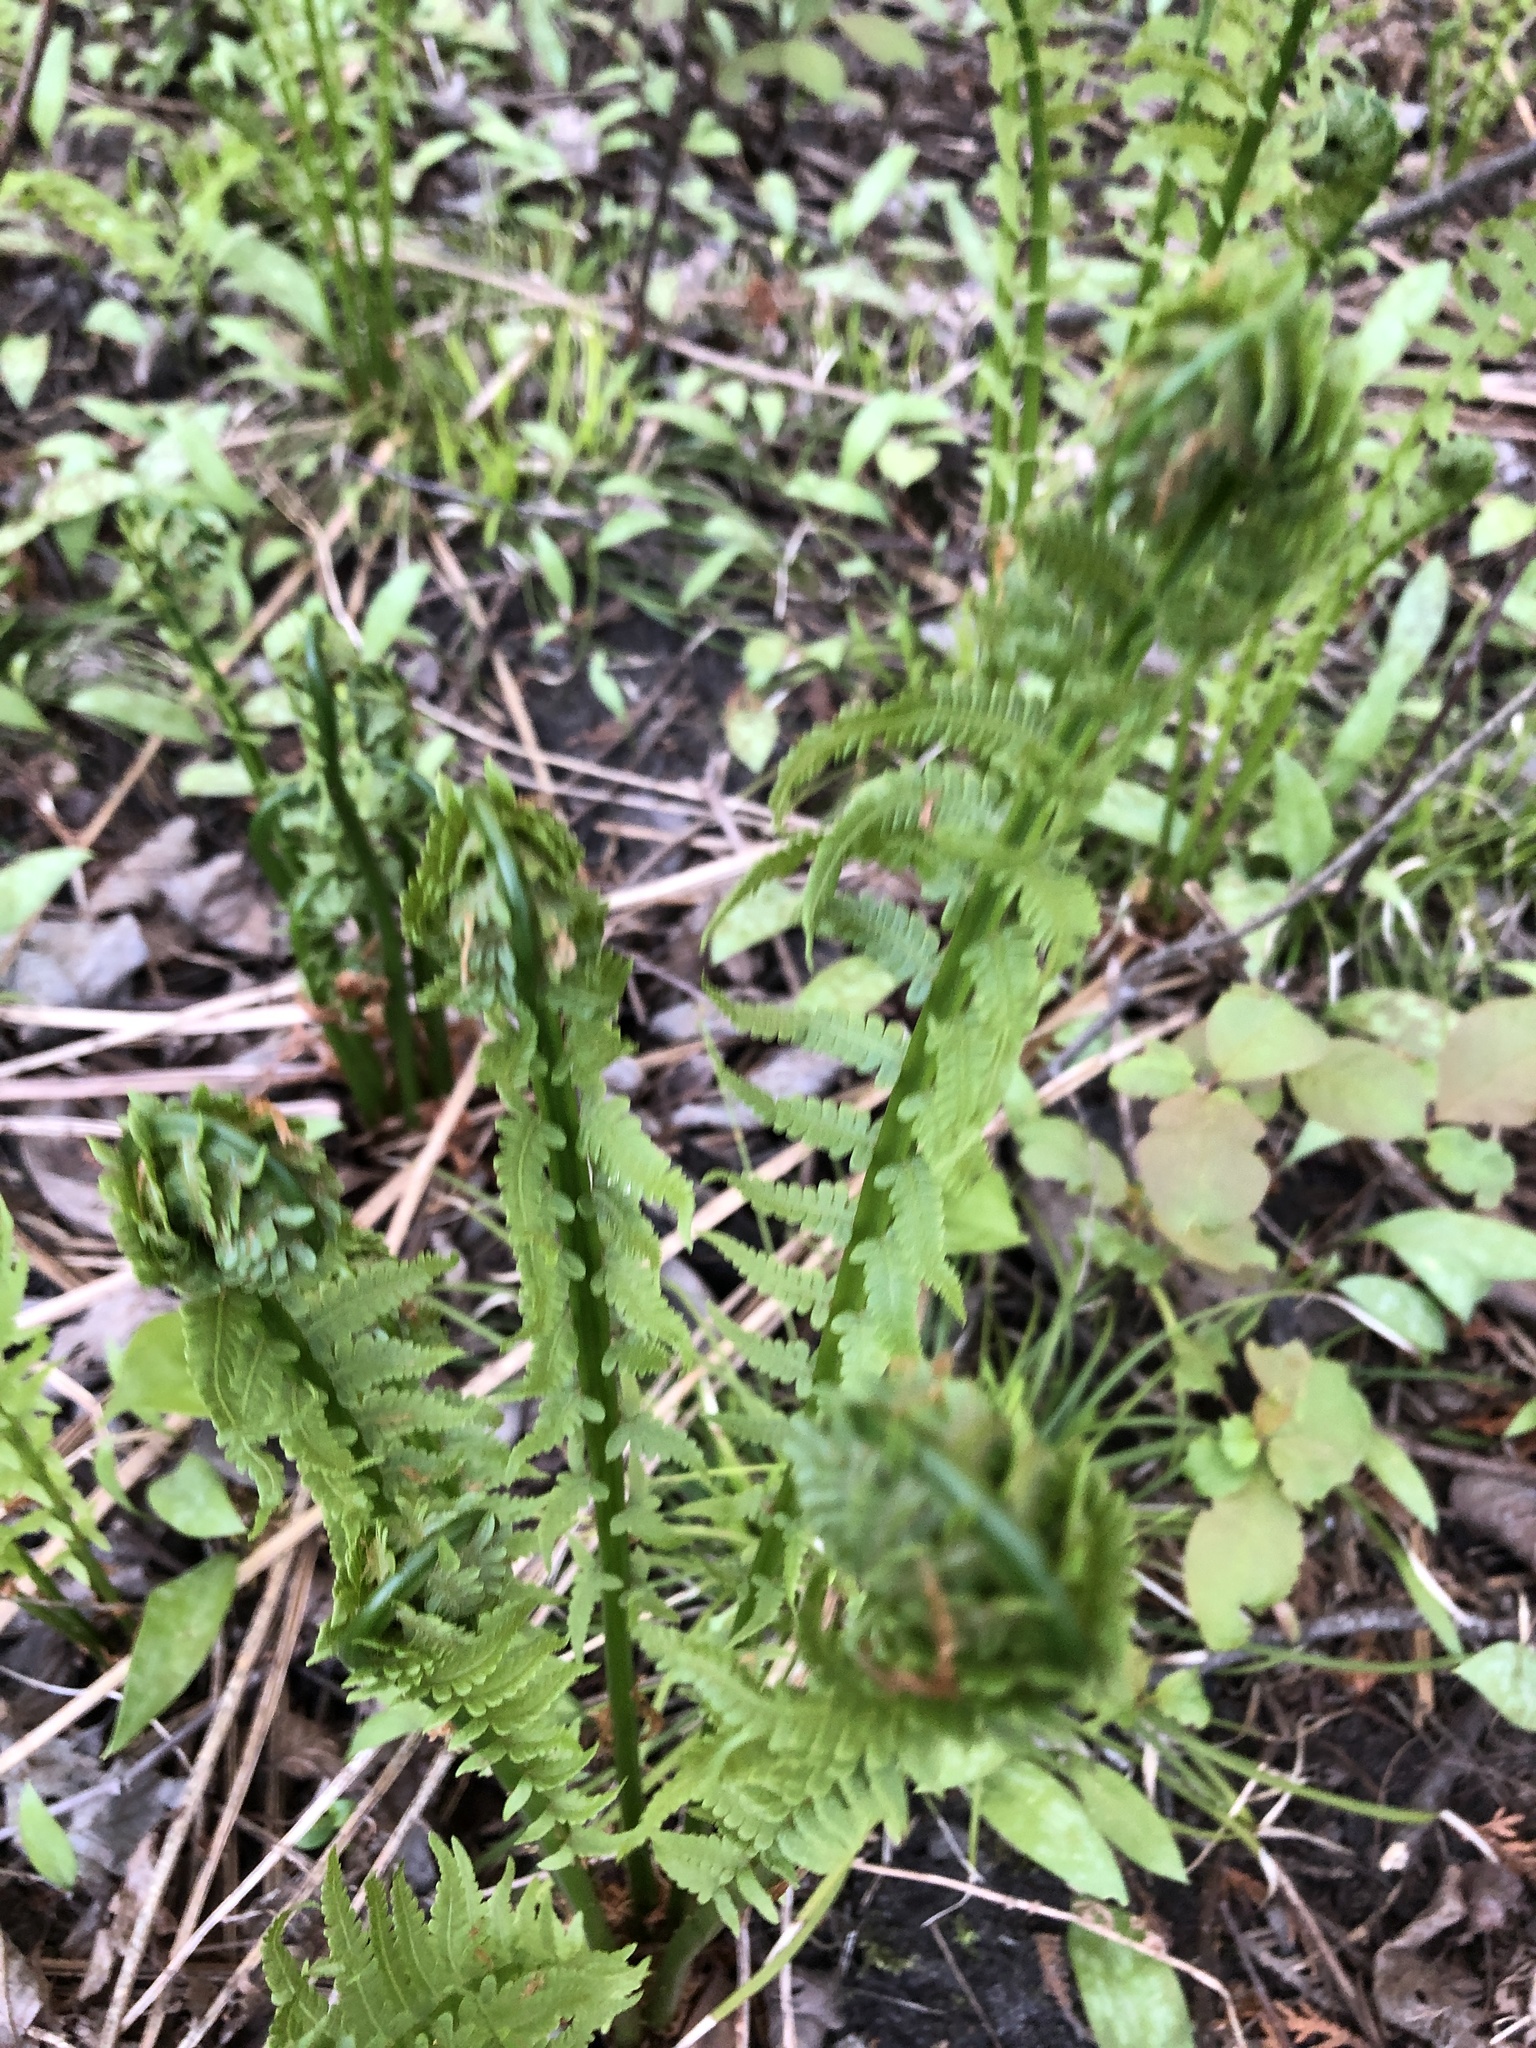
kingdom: Plantae
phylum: Tracheophyta
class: Polypodiopsida
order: Polypodiales
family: Onocleaceae
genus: Matteuccia
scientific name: Matteuccia struthiopteris
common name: Ostrich fern
